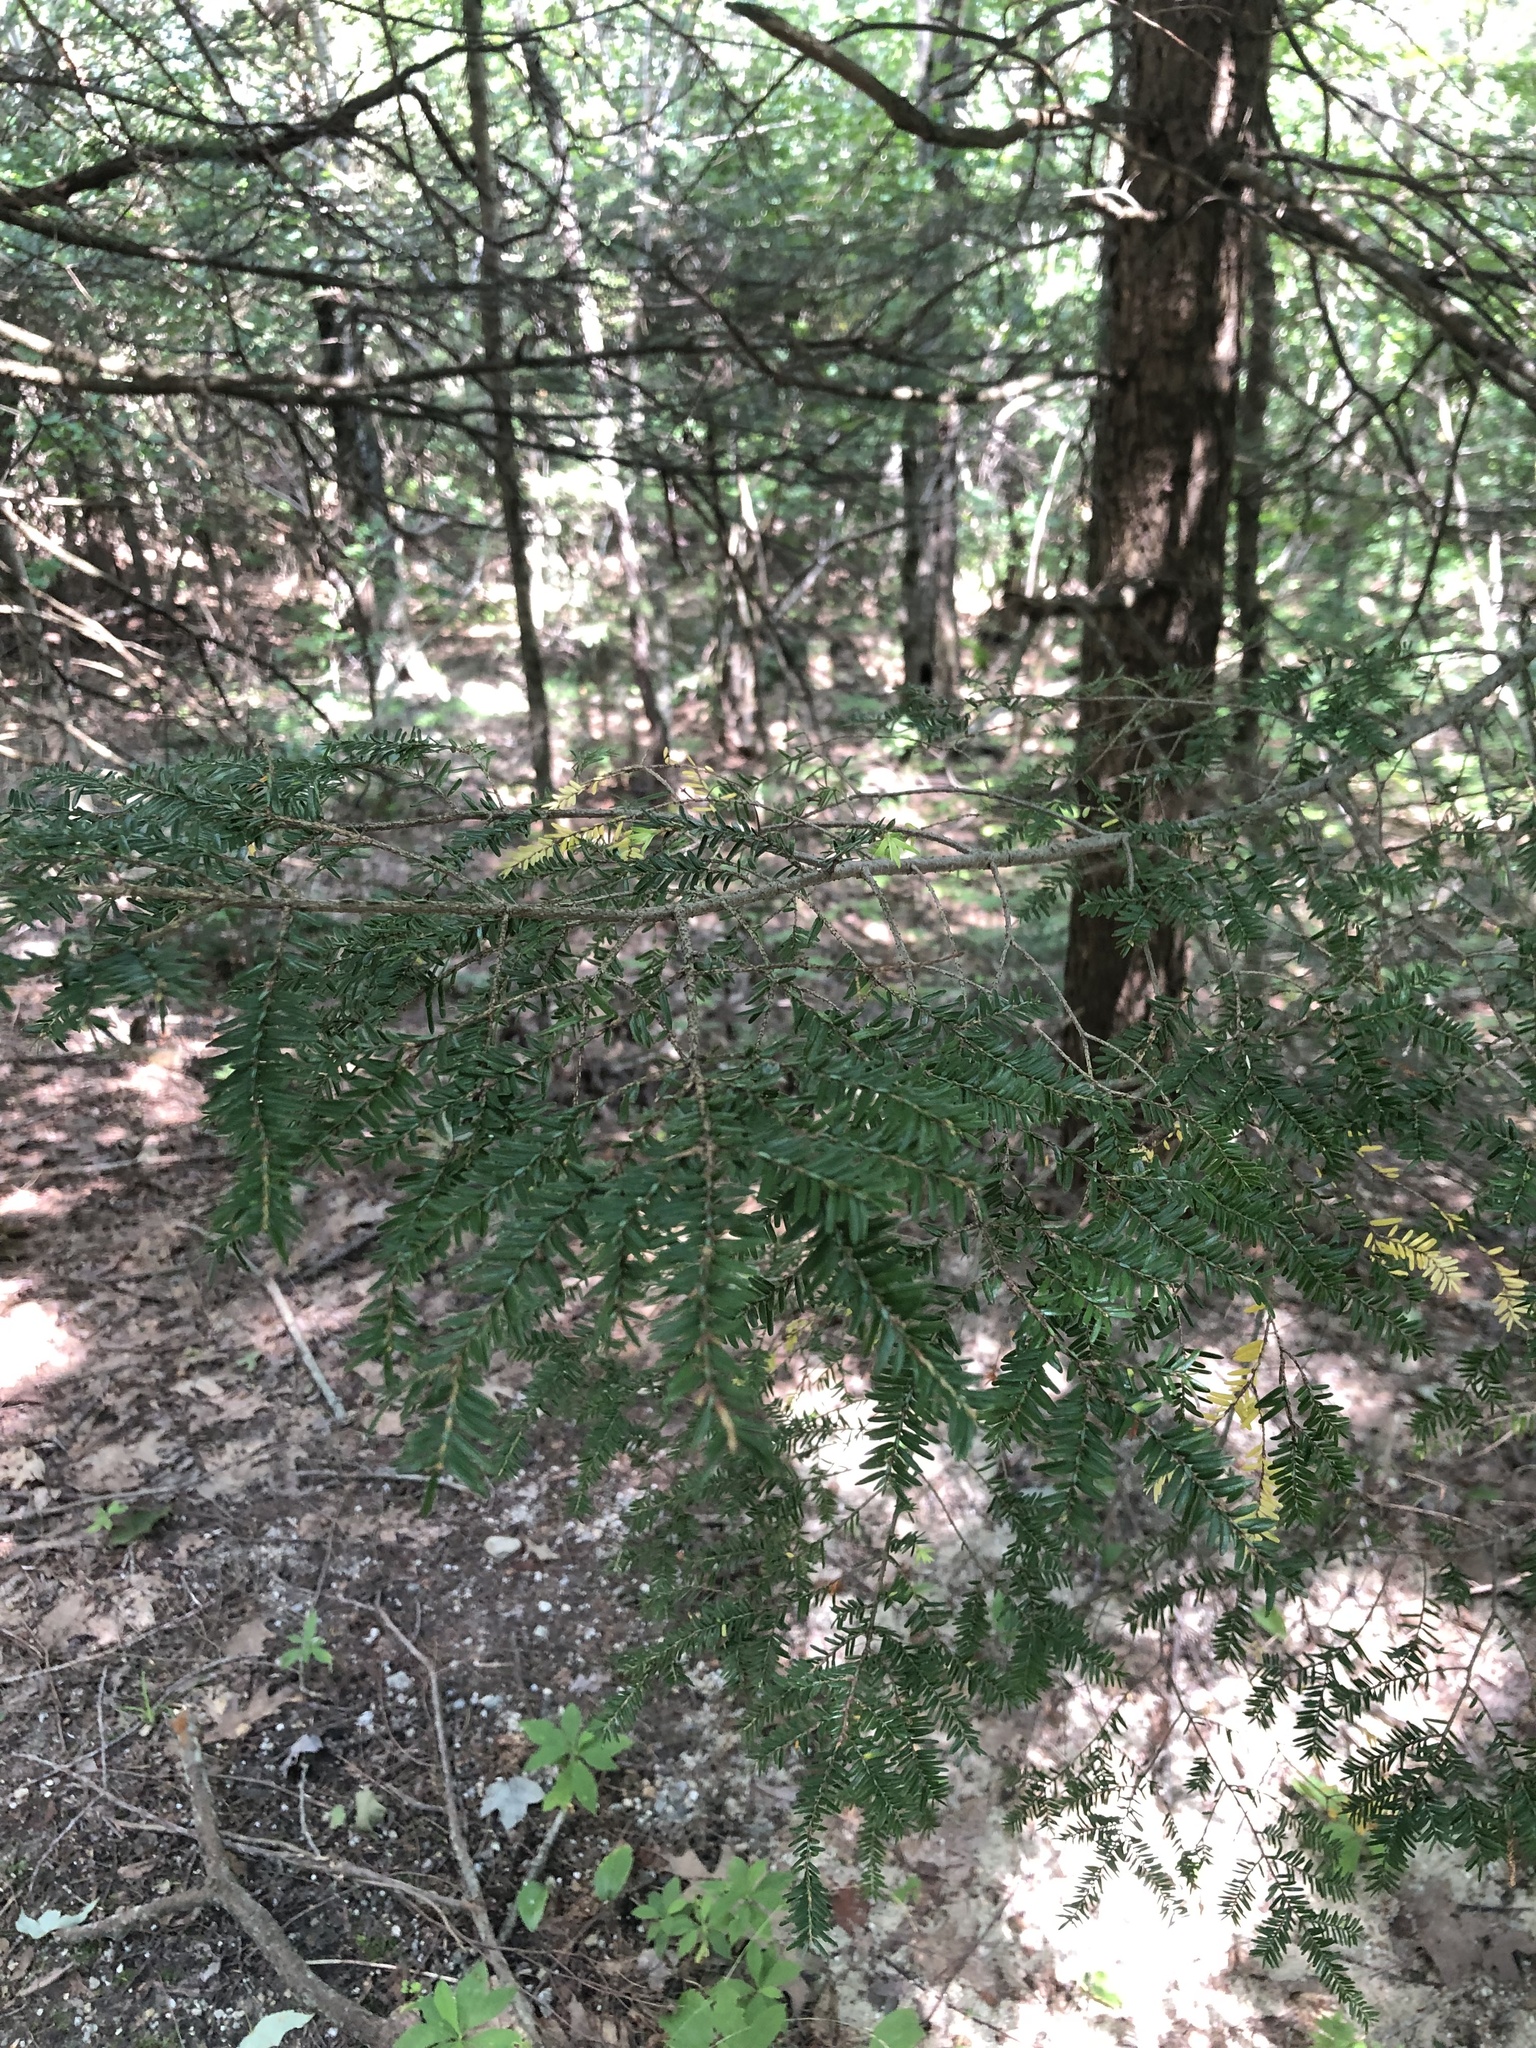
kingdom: Plantae
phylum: Tracheophyta
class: Pinopsida
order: Pinales
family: Pinaceae
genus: Tsuga
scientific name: Tsuga canadensis
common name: Eastern hemlock
